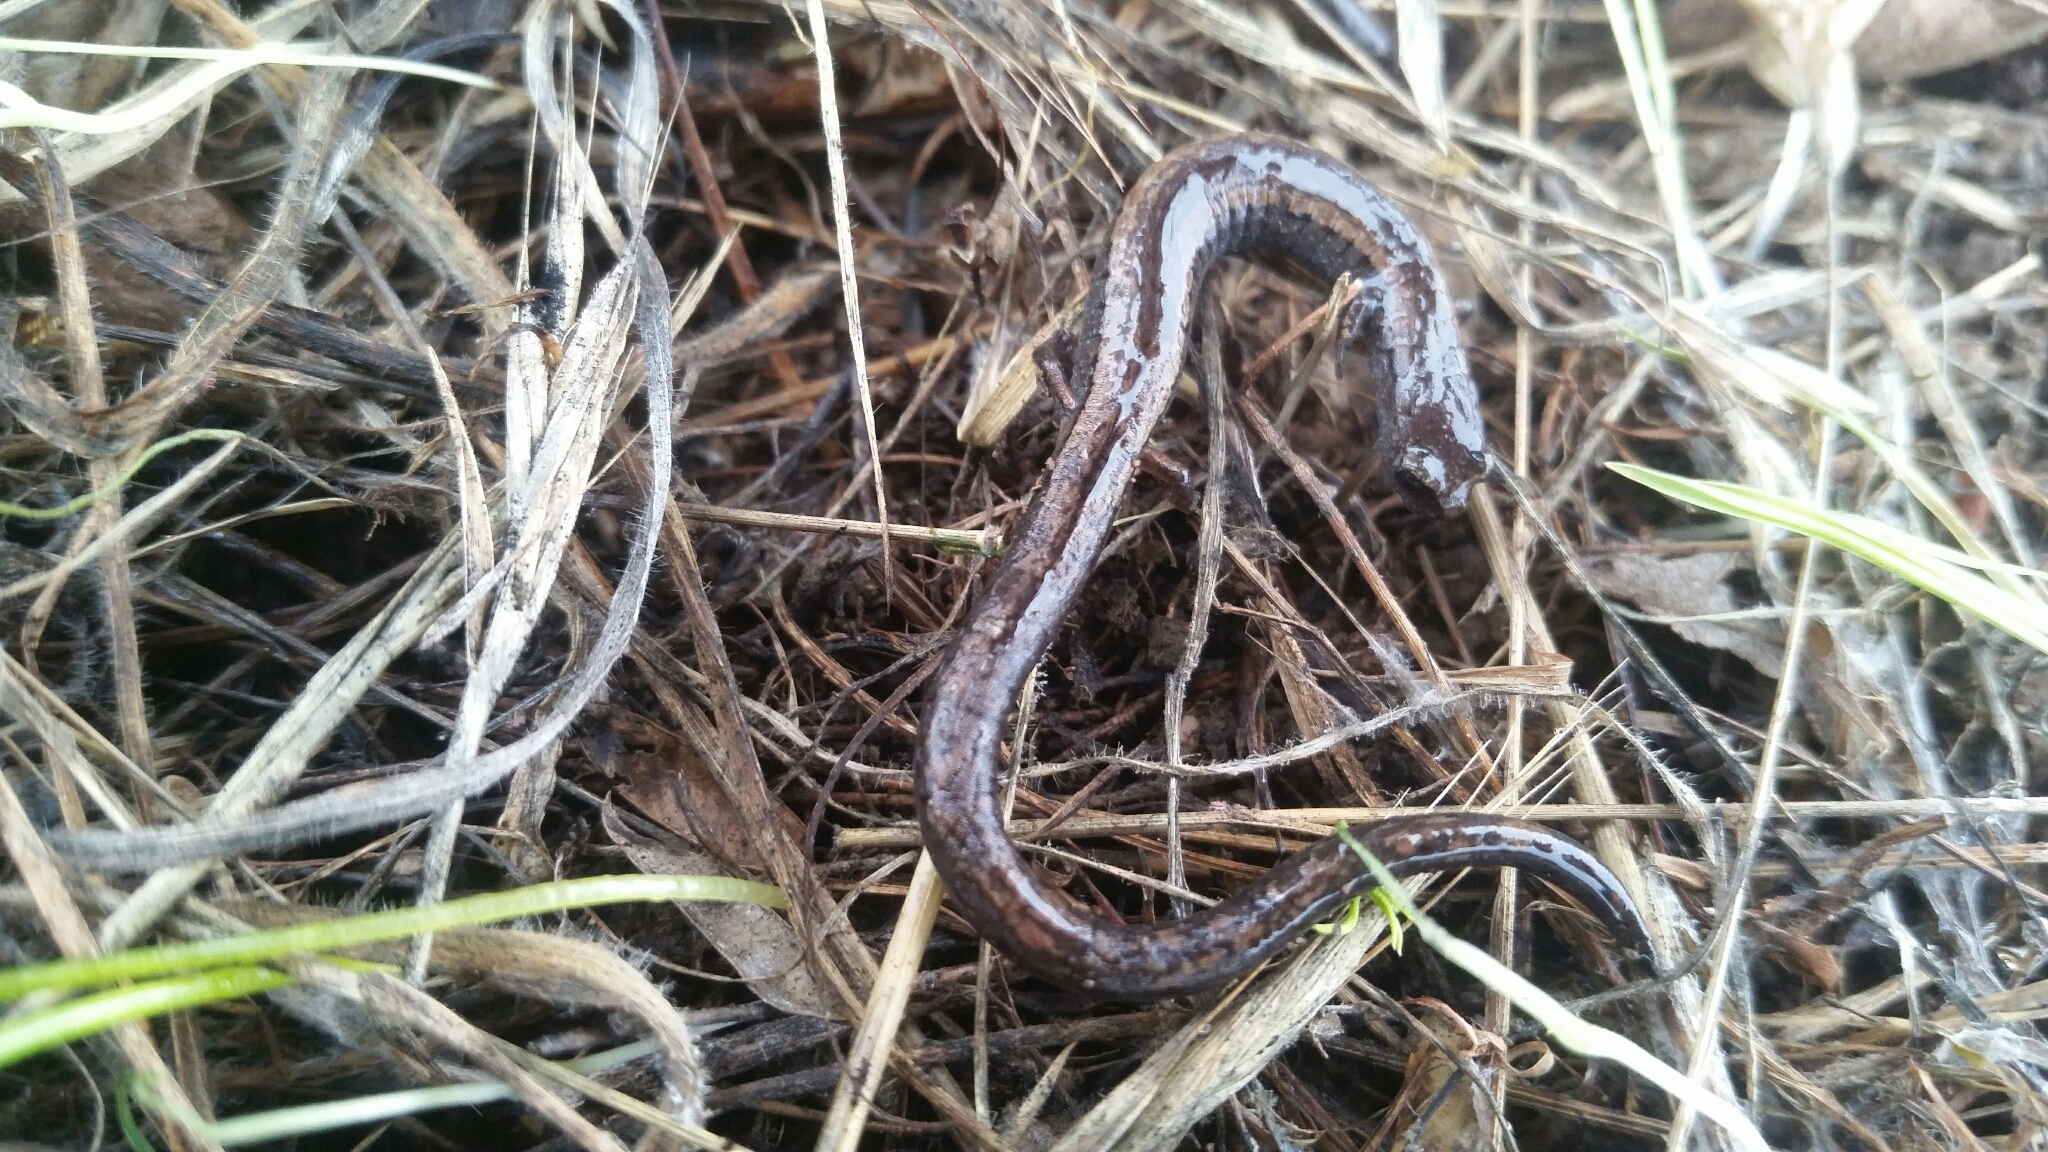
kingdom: Animalia
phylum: Chordata
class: Amphibia
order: Caudata
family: Plethodontidae
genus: Batrachoseps
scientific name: Batrachoseps attenuatus
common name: California slender salamander
